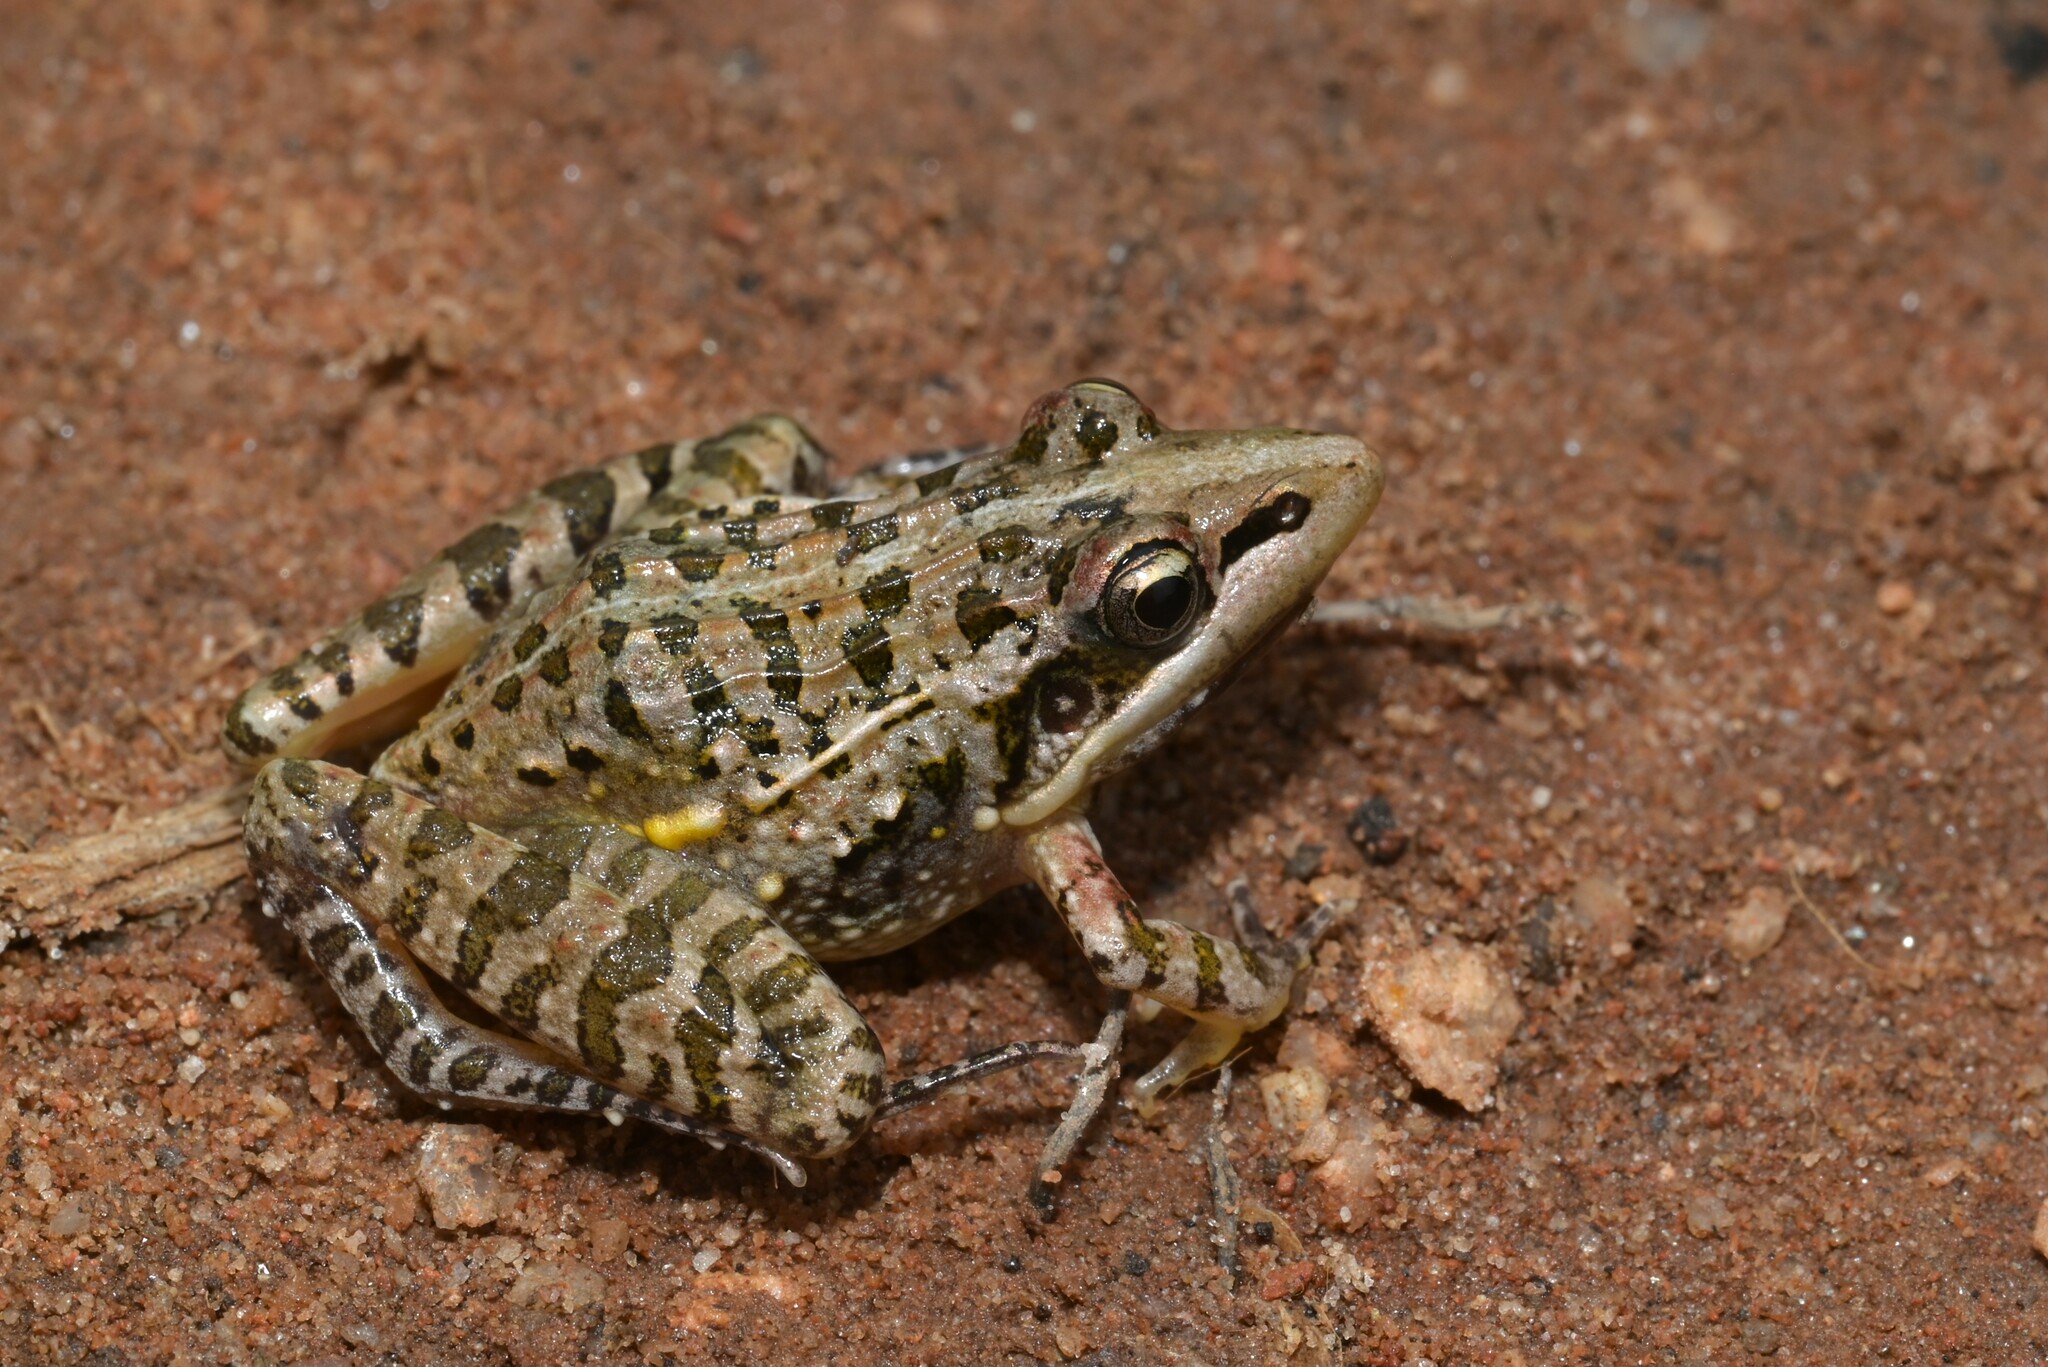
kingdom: Animalia
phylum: Chordata
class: Amphibia
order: Anura
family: Ptychadenidae
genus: Ptychadena
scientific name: Ptychadena uzungwensis
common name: Udzungwa ridged frog
